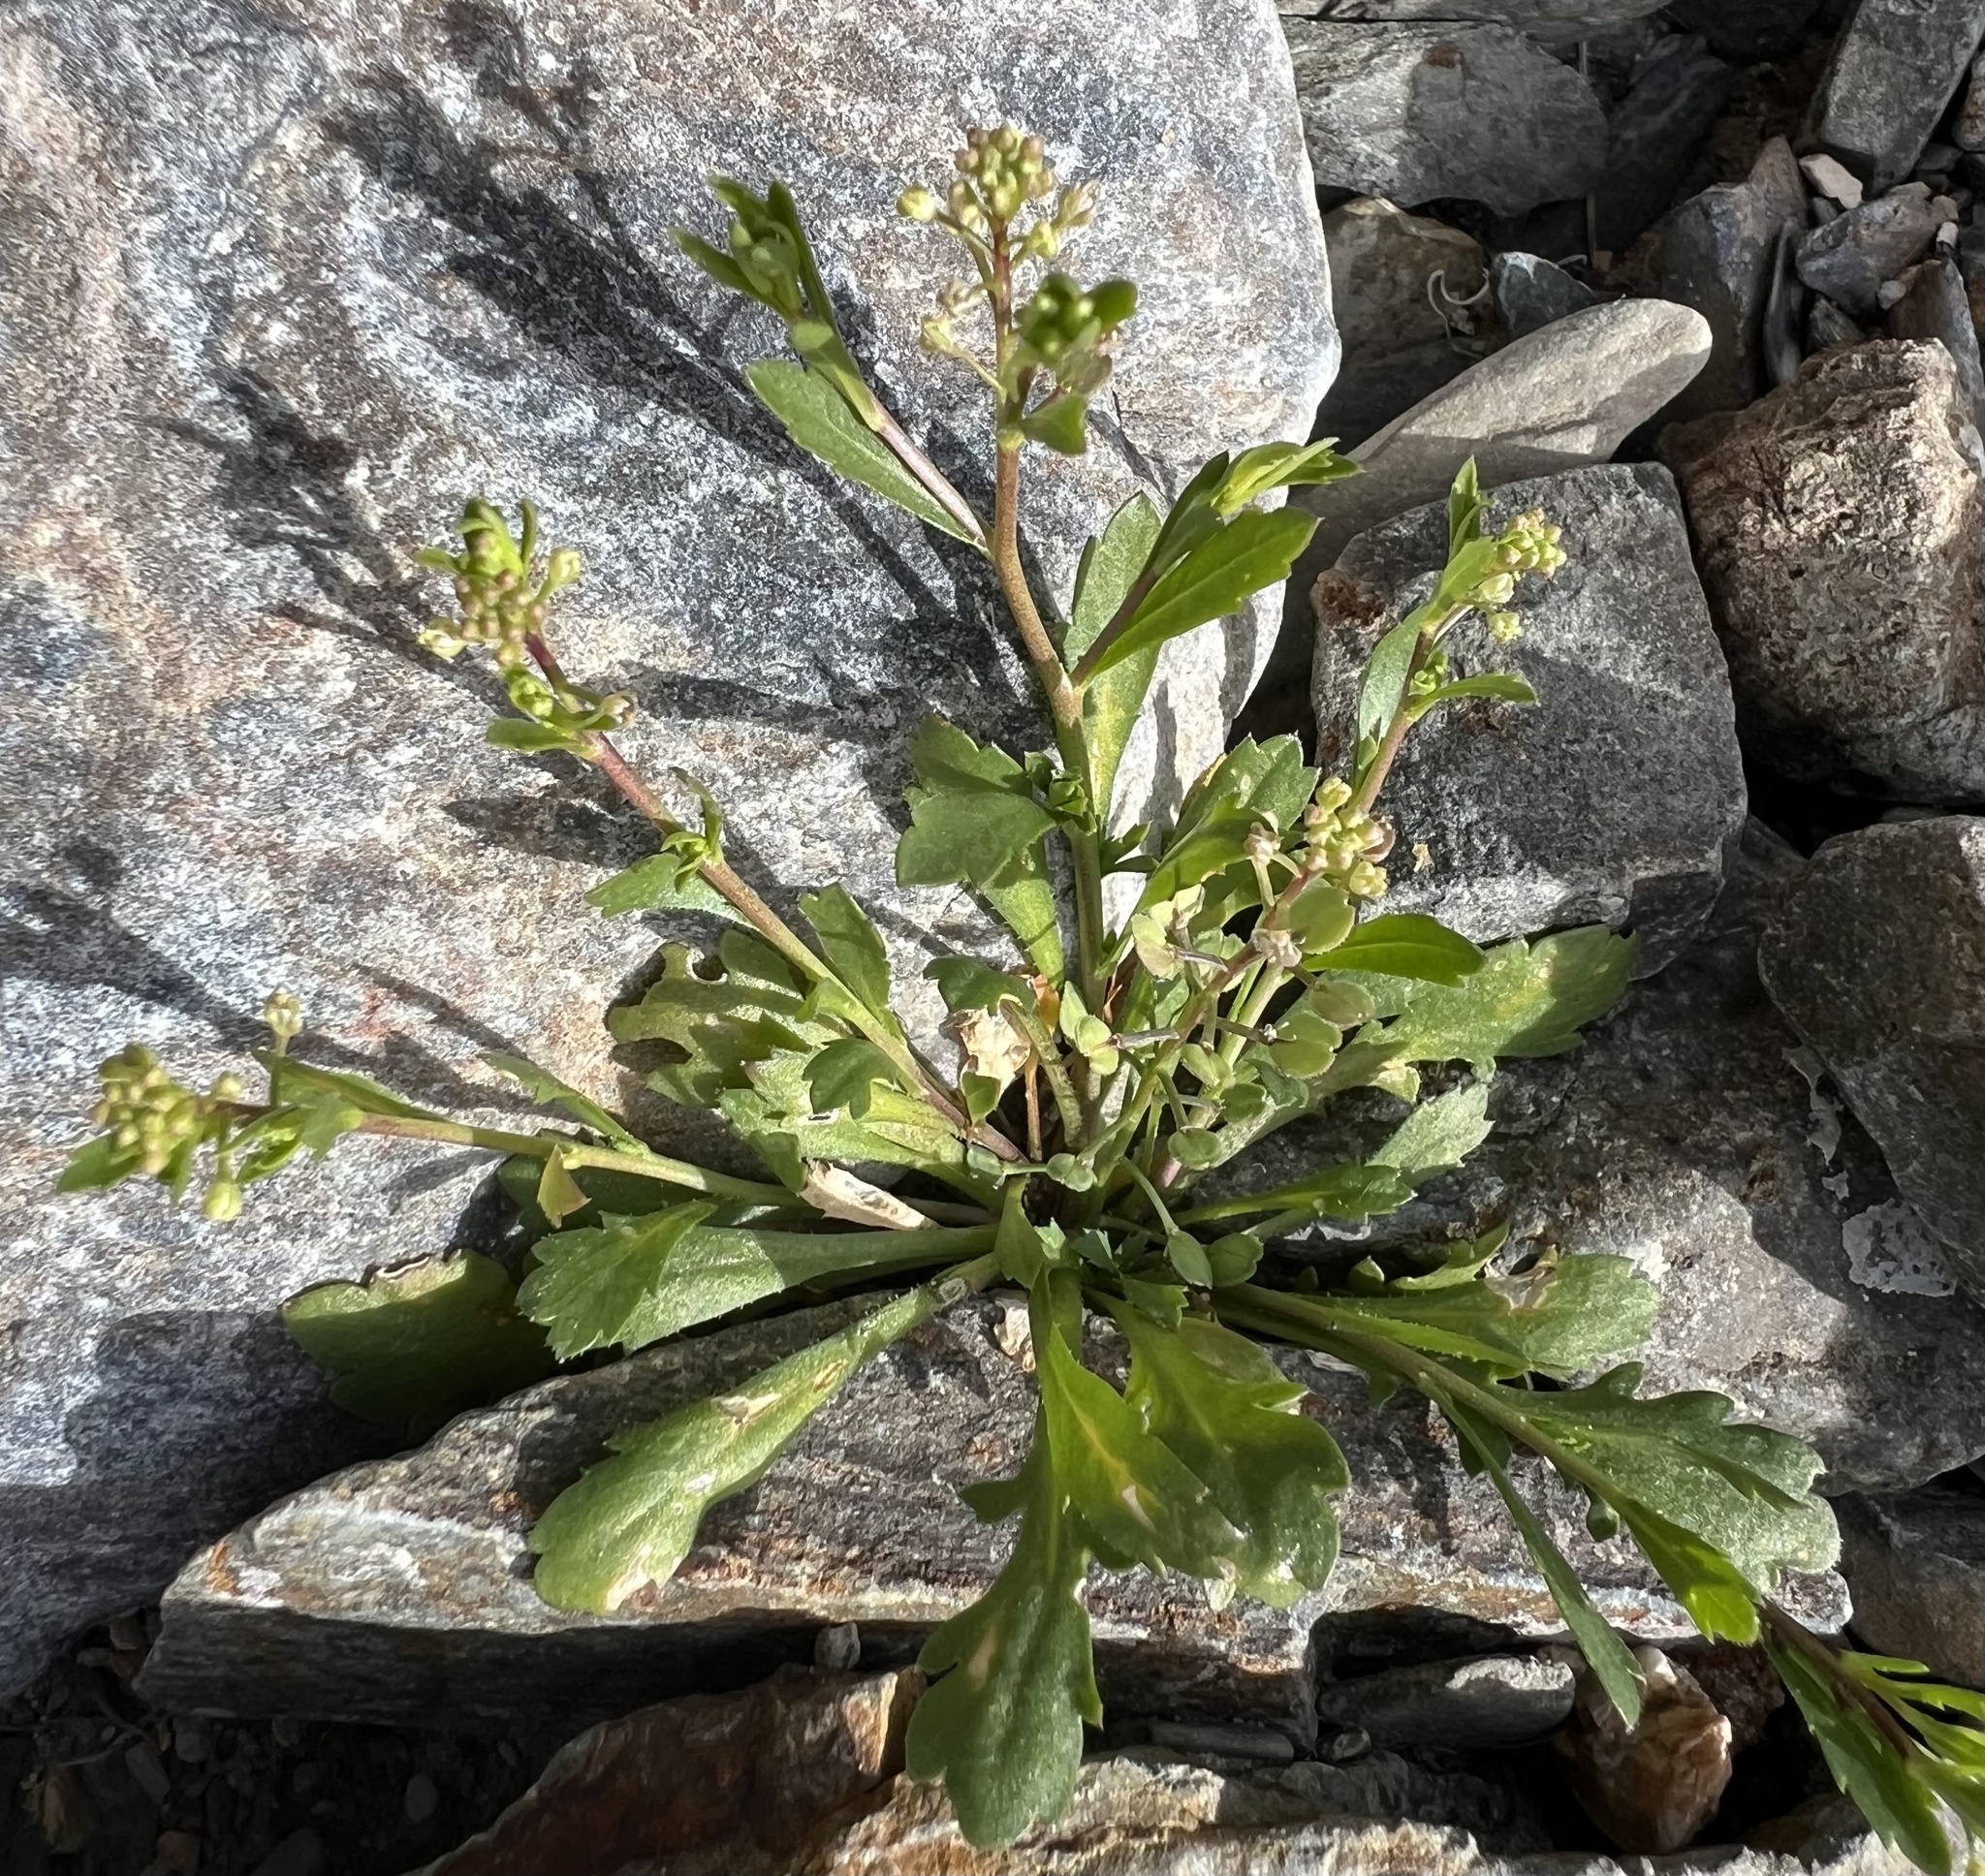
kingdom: Plantae
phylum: Tracheophyta
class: Magnoliopsida
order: Brassicales
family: Brassicaceae
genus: Lepidium
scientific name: Lepidium lasiocarpum
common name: Hairy-pod pepperwort
